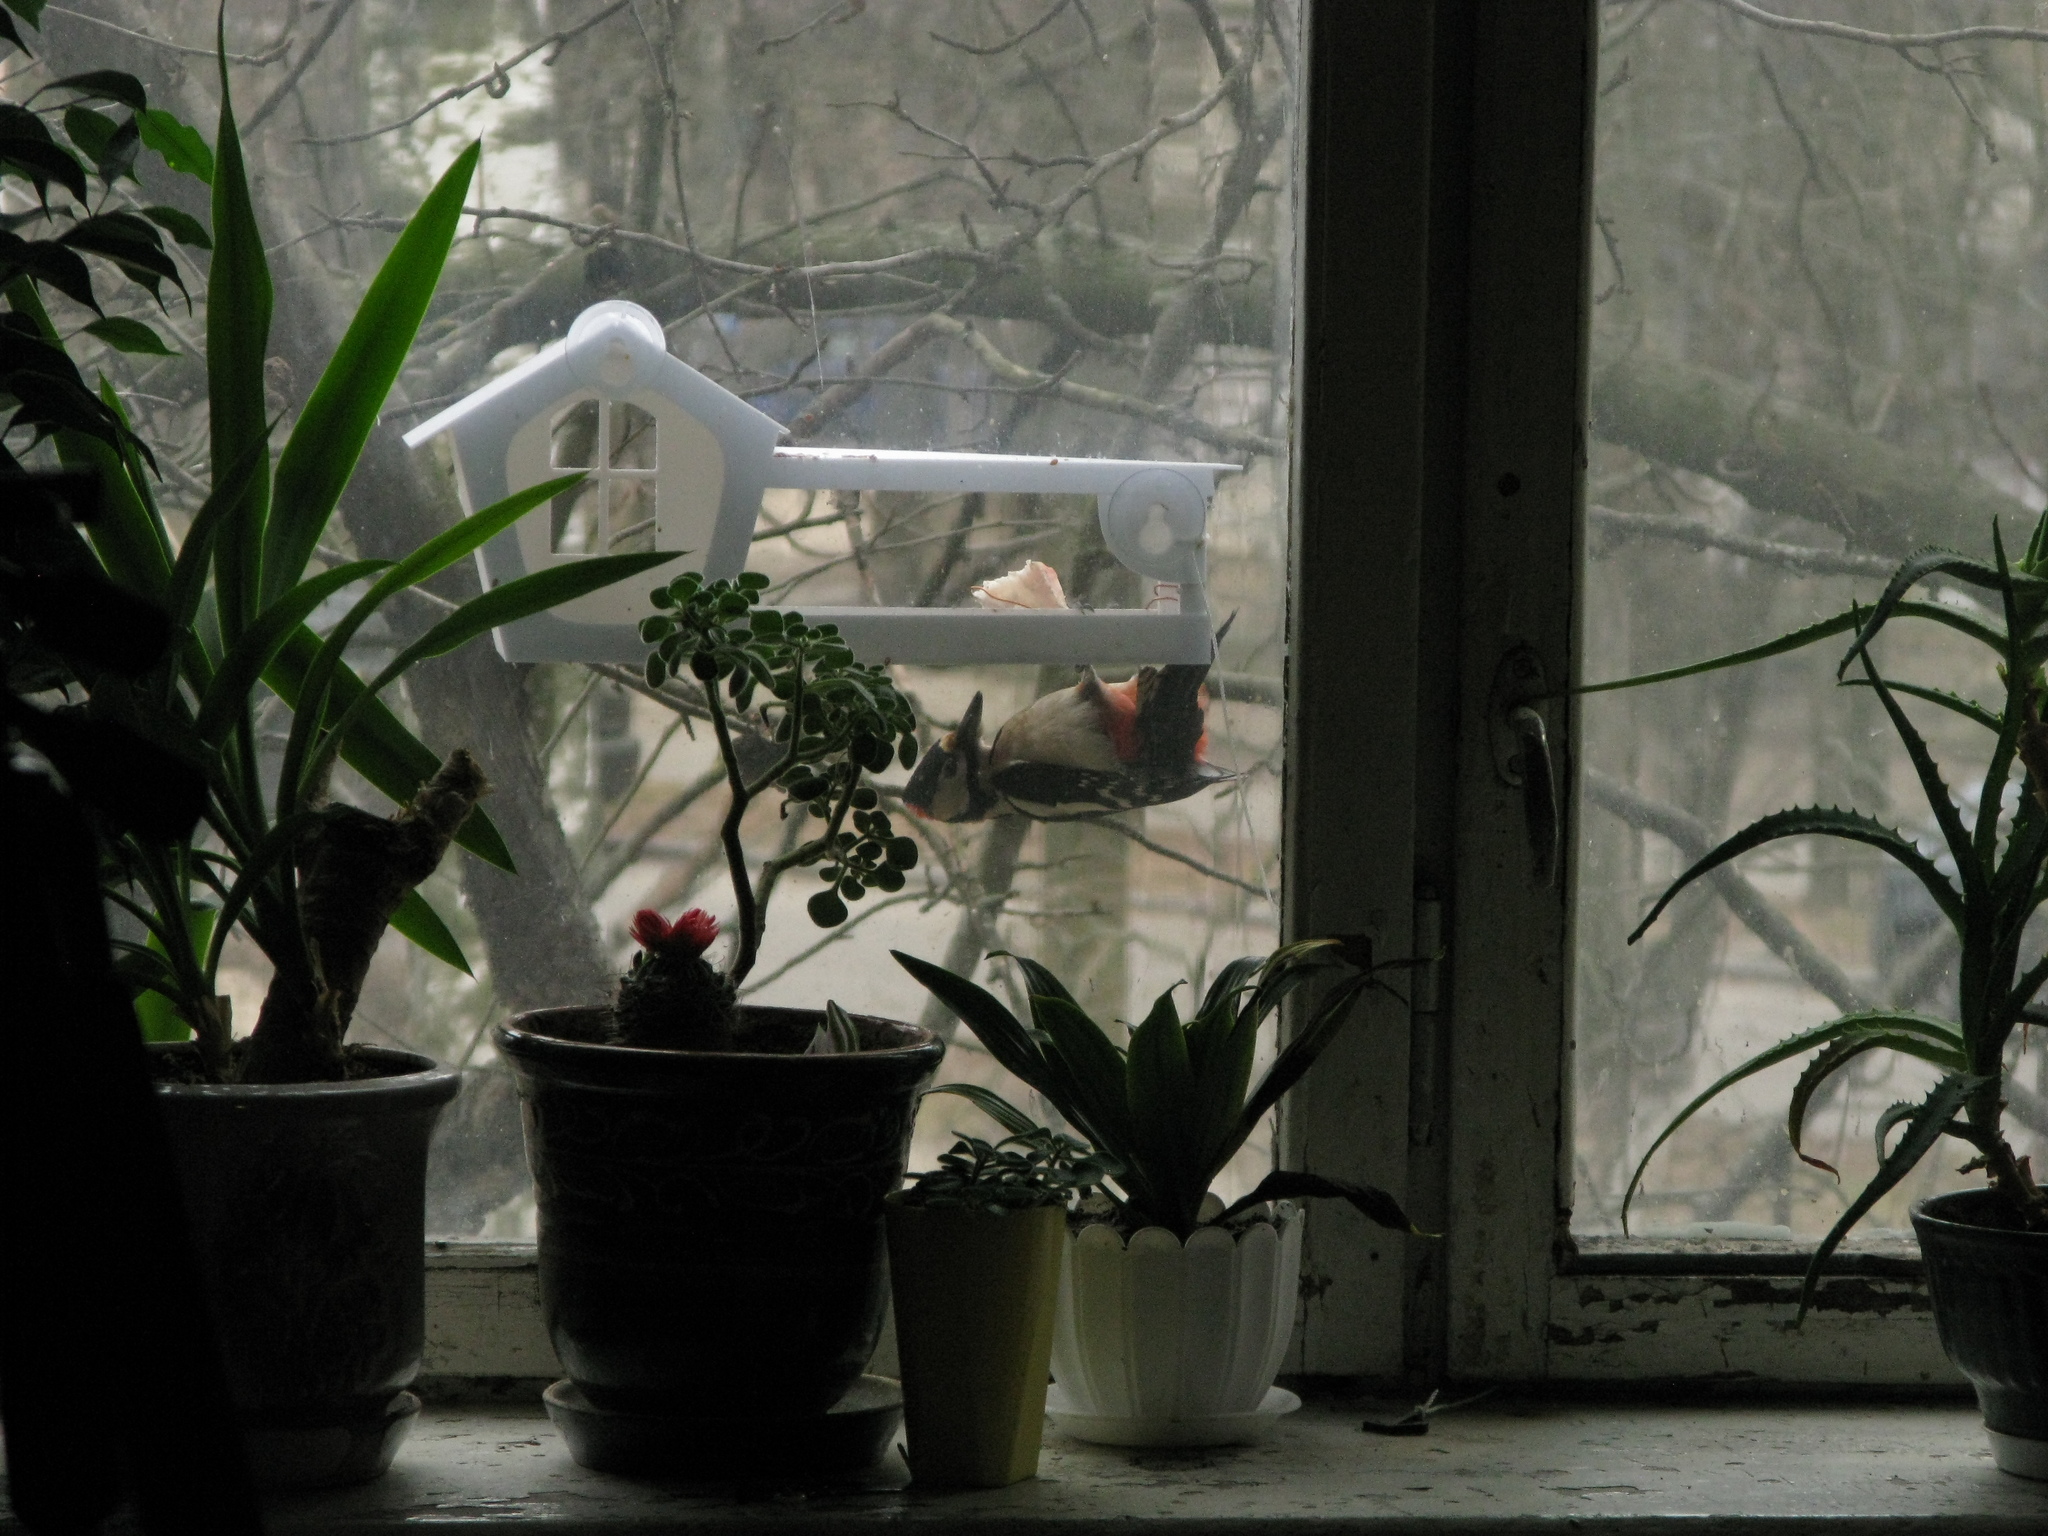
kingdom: Animalia
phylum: Chordata
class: Aves
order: Piciformes
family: Picidae
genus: Dendrocopos
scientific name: Dendrocopos major
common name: Great spotted woodpecker
